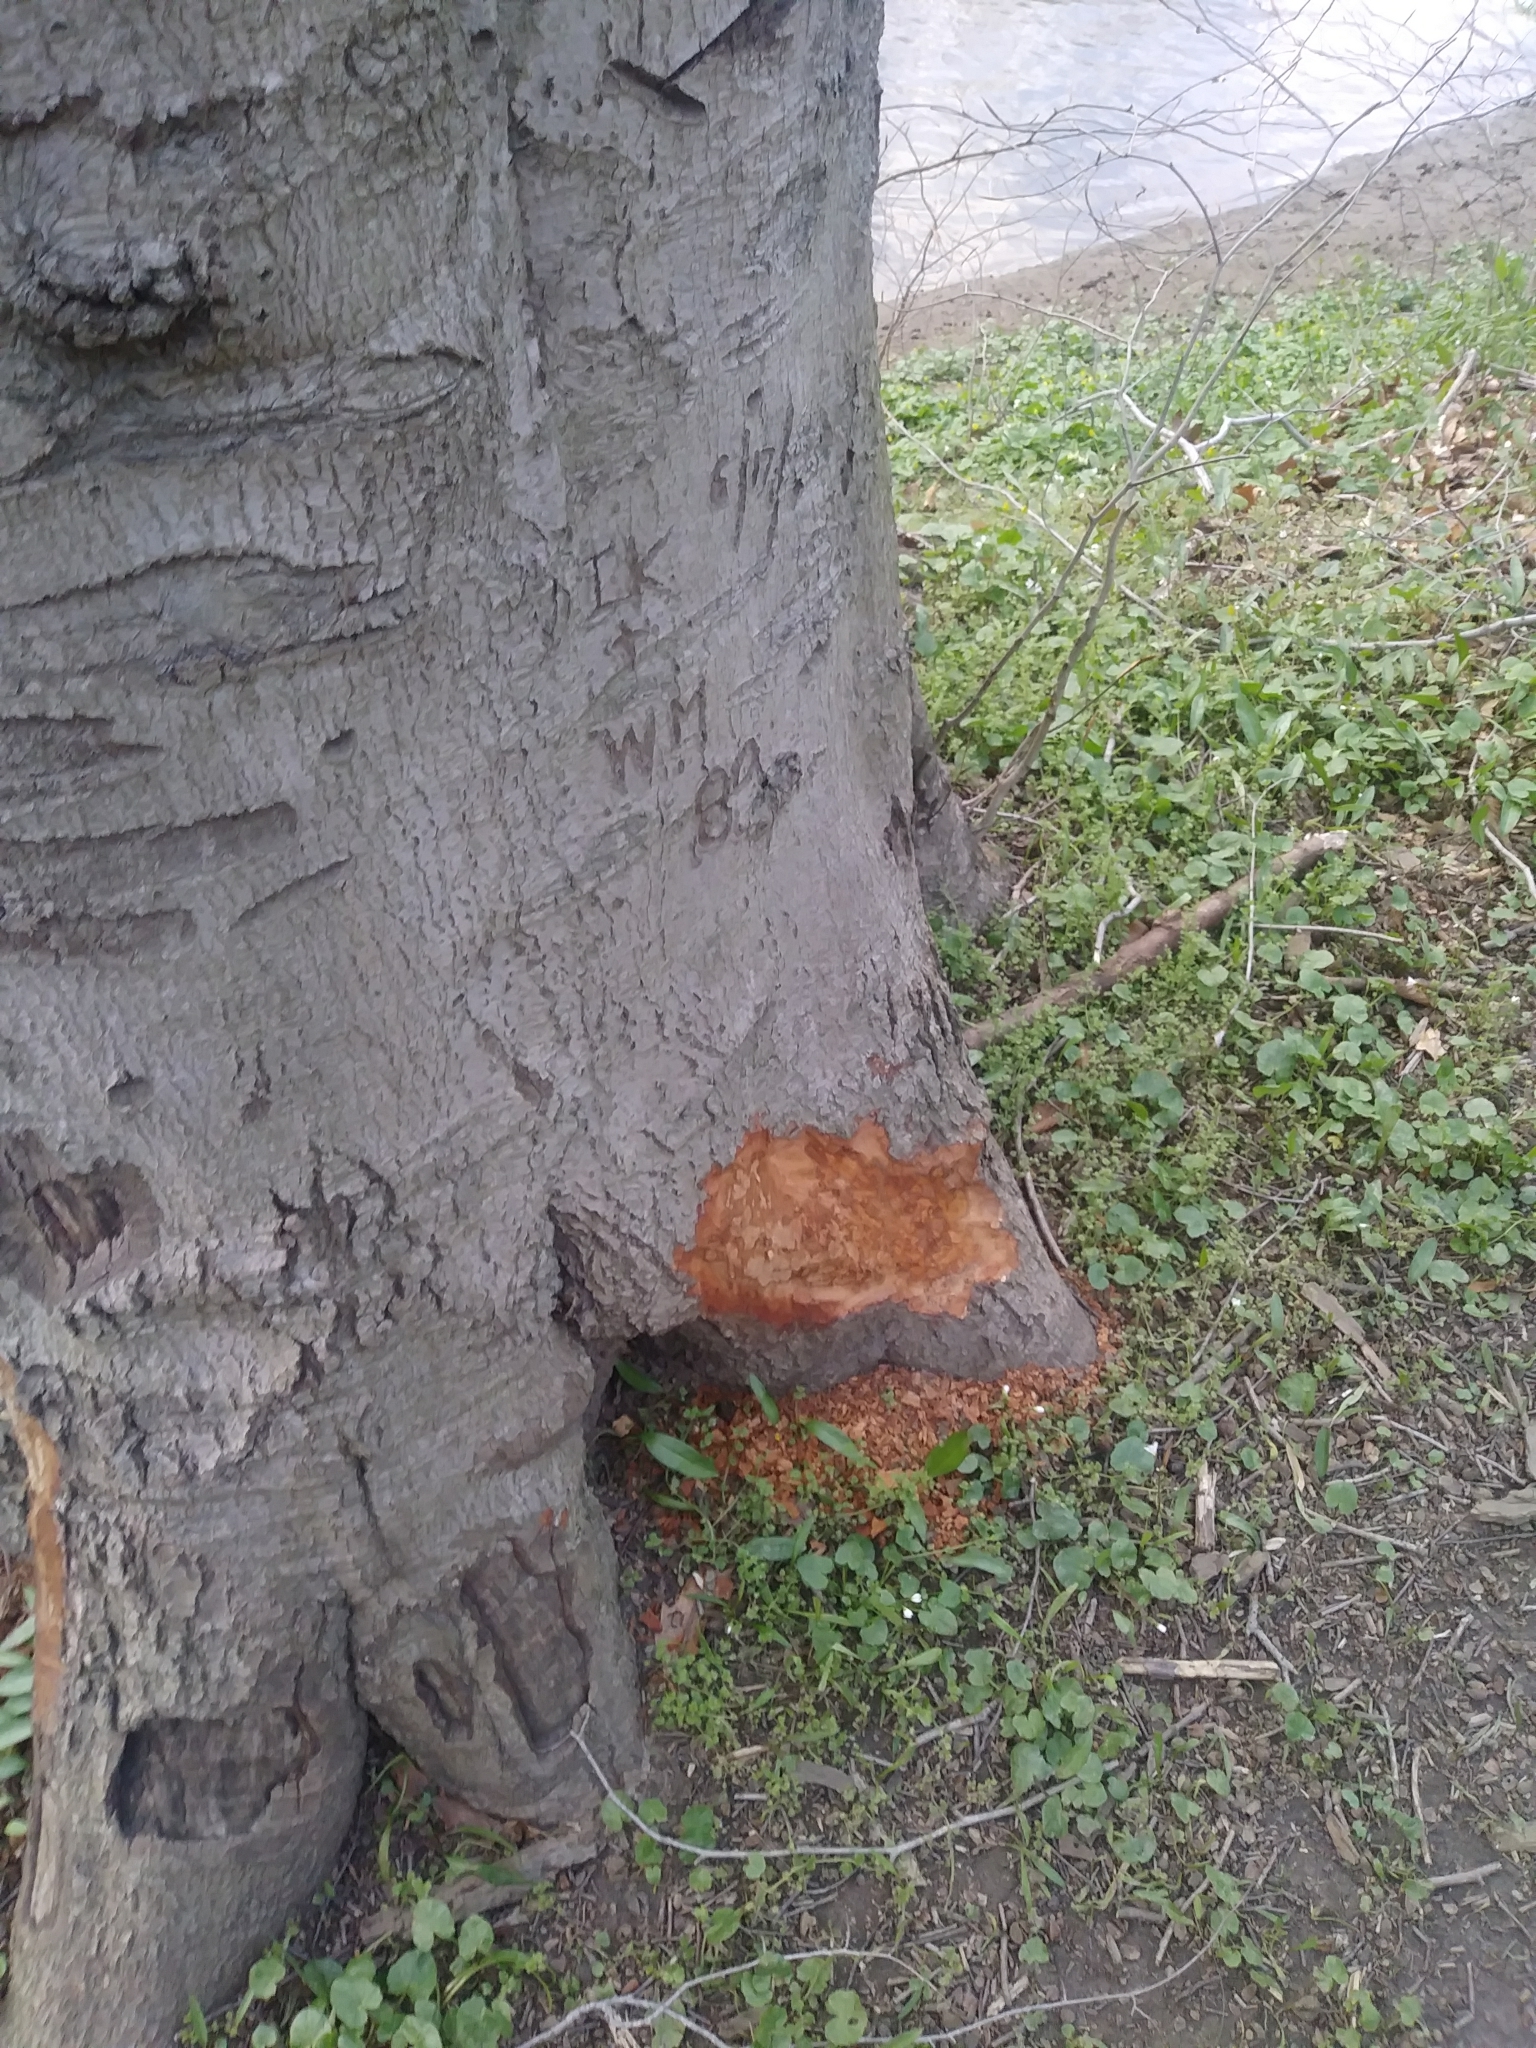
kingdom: Animalia
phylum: Chordata
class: Mammalia
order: Rodentia
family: Castoridae
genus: Castor
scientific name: Castor canadensis
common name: American beaver
